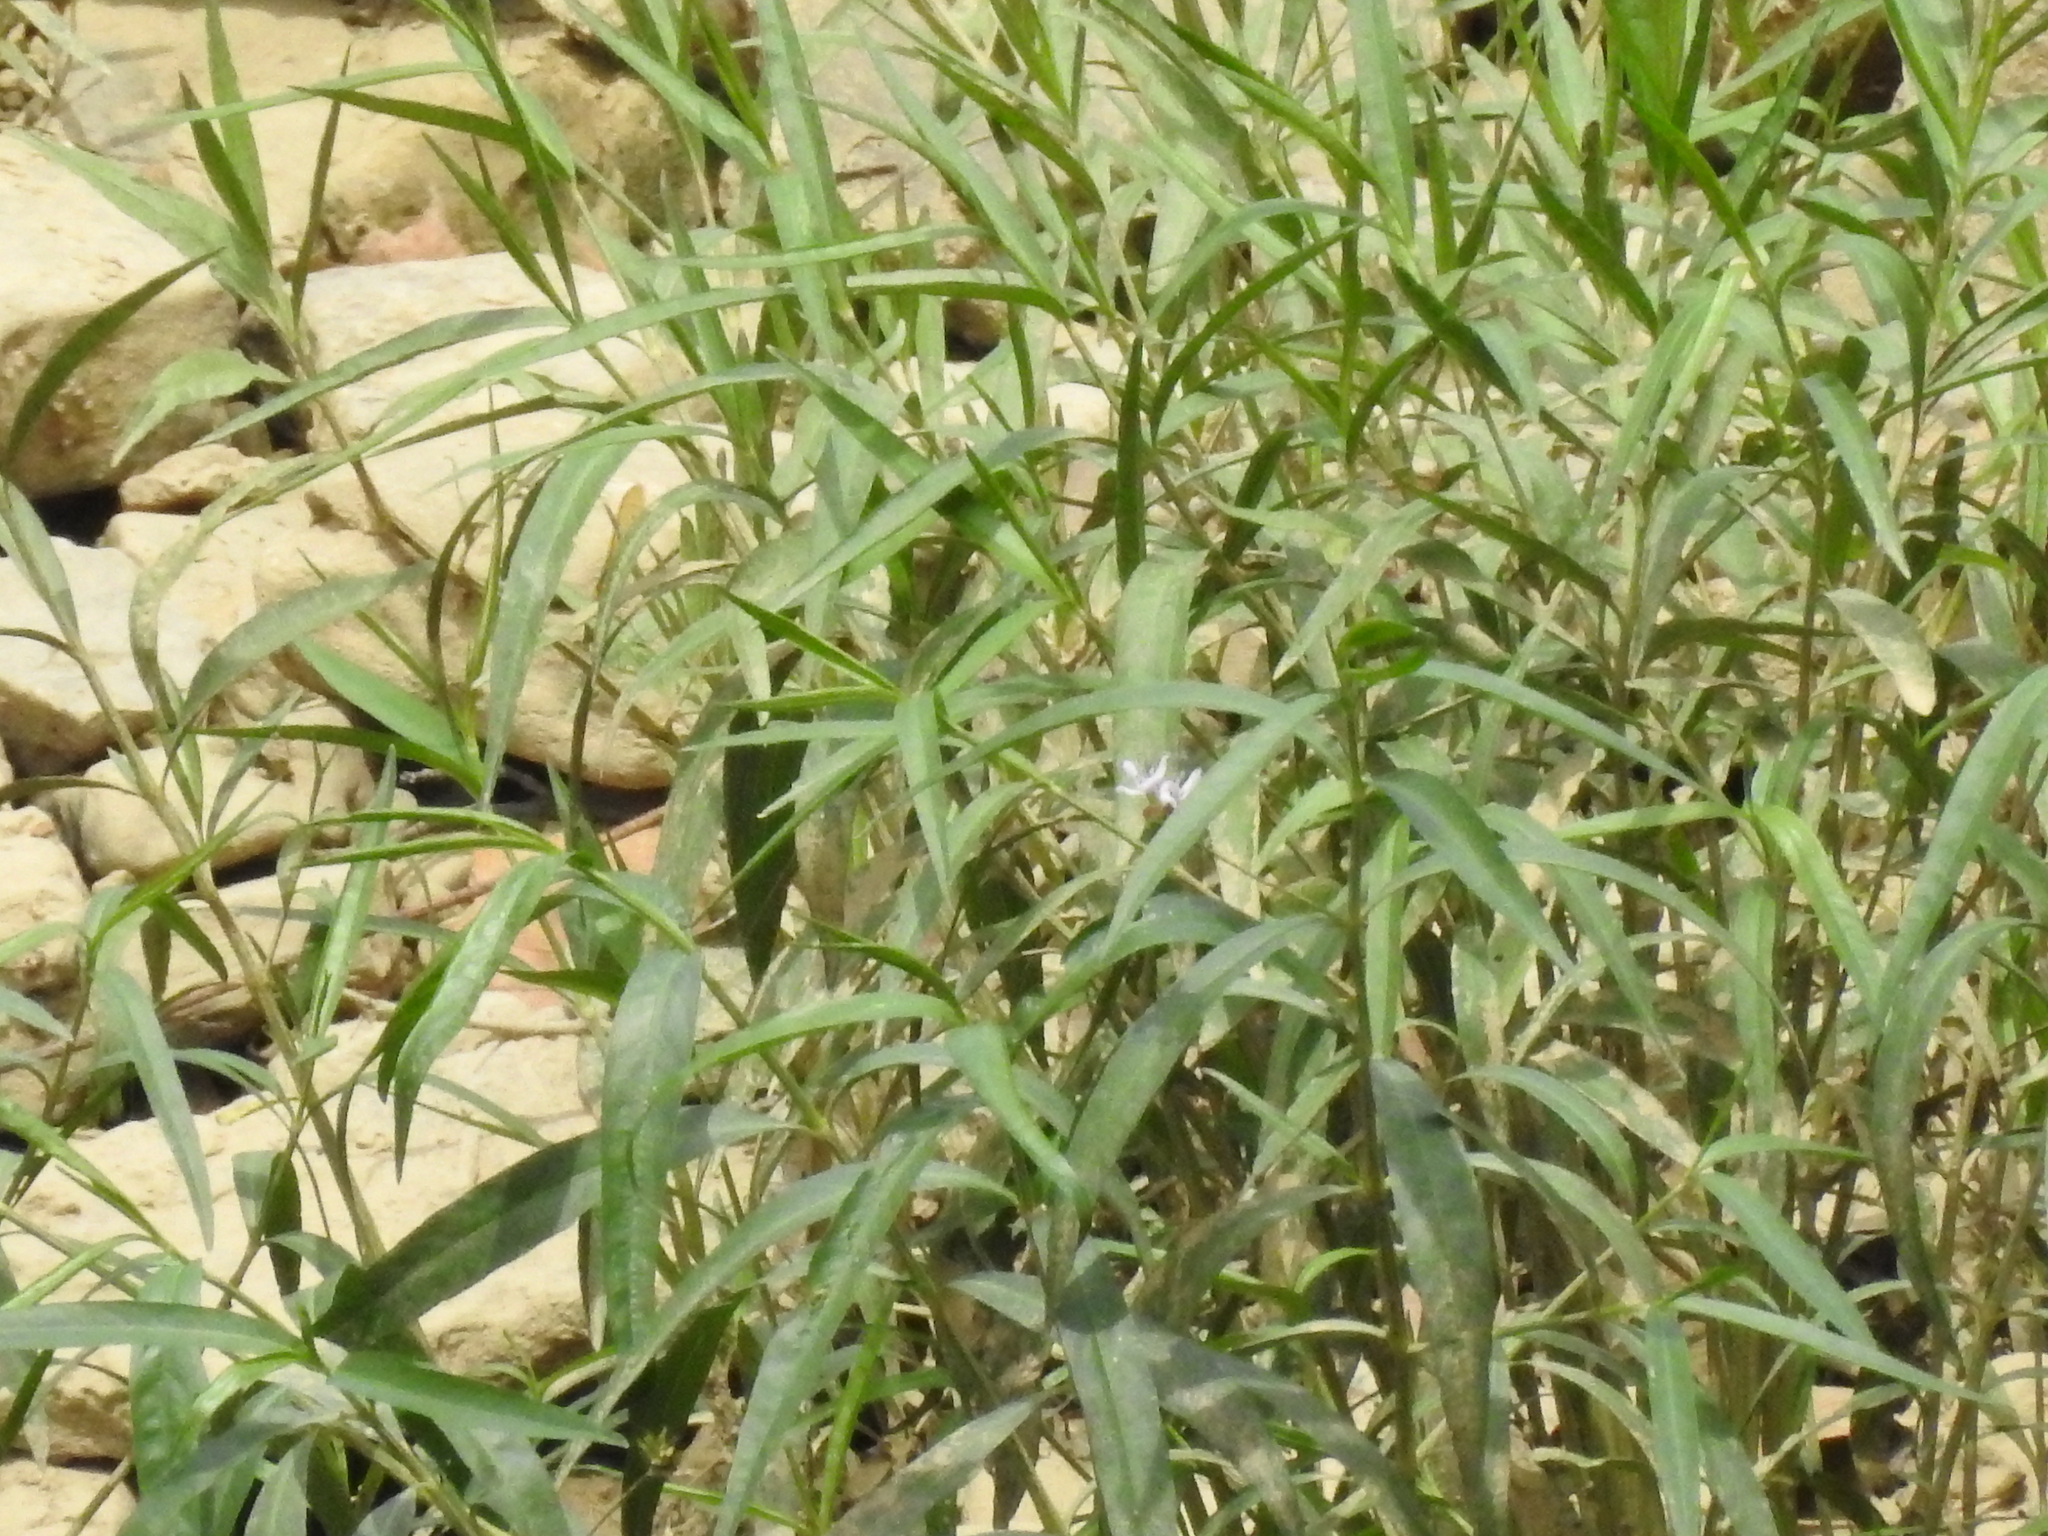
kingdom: Plantae
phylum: Tracheophyta
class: Magnoliopsida
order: Lamiales
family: Acanthaceae
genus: Dianthera
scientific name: Dianthera americana
